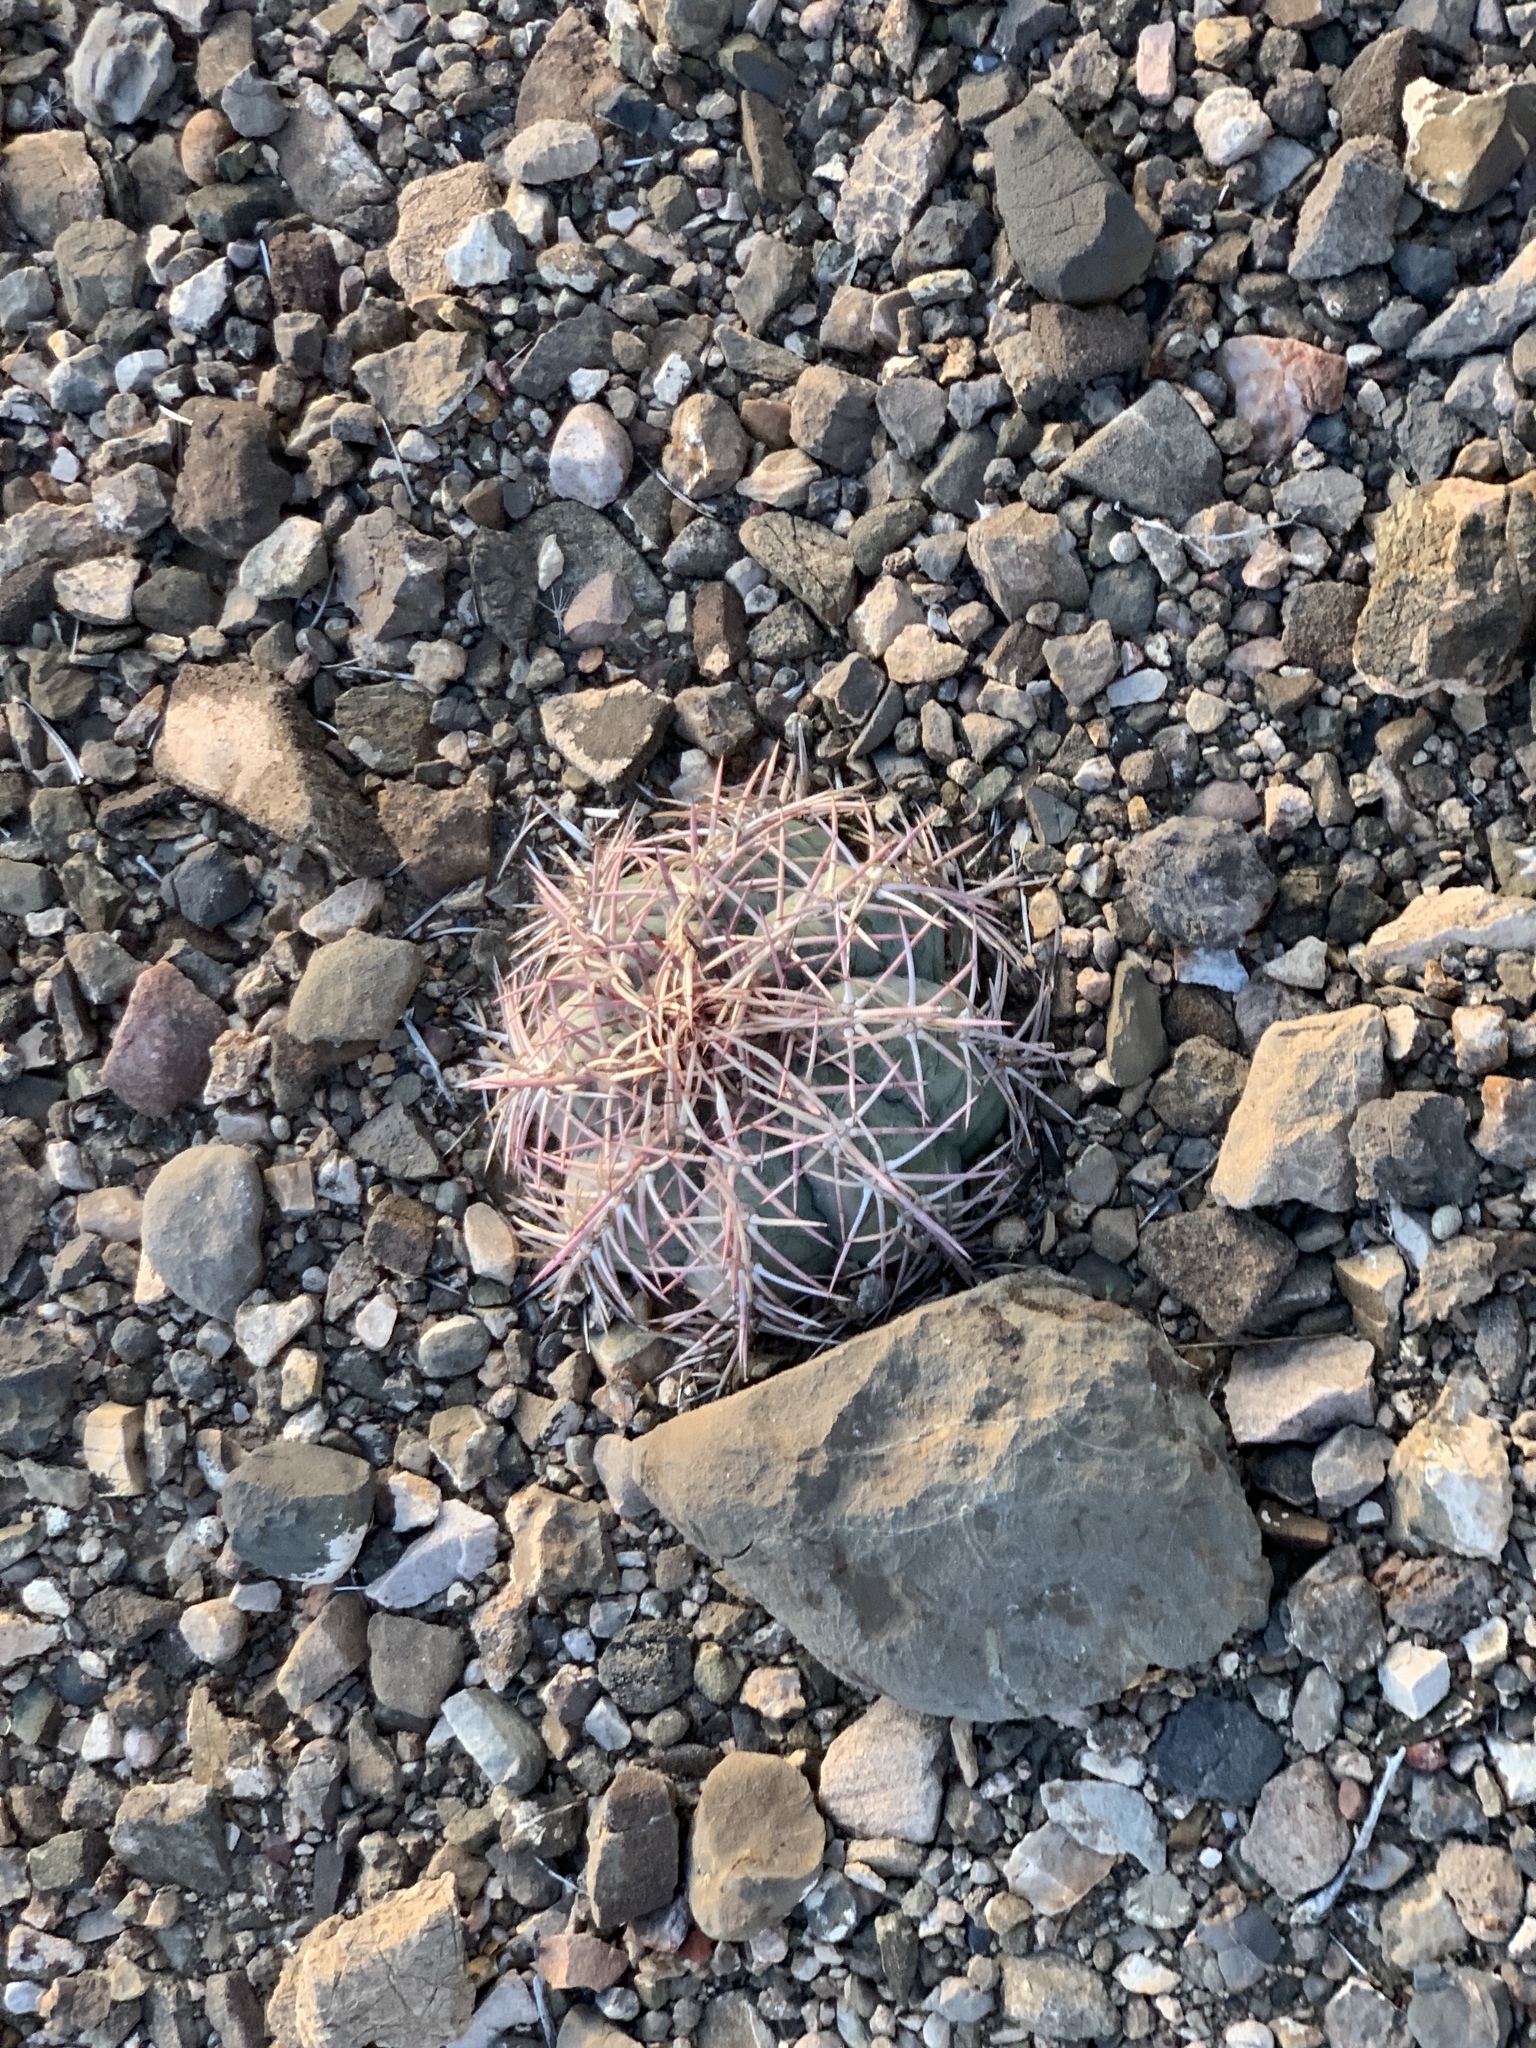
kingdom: Plantae
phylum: Tracheophyta
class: Magnoliopsida
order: Caryophyllales
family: Cactaceae
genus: Echinocactus
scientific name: Echinocactus horizonthalonius
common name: Devilshead
